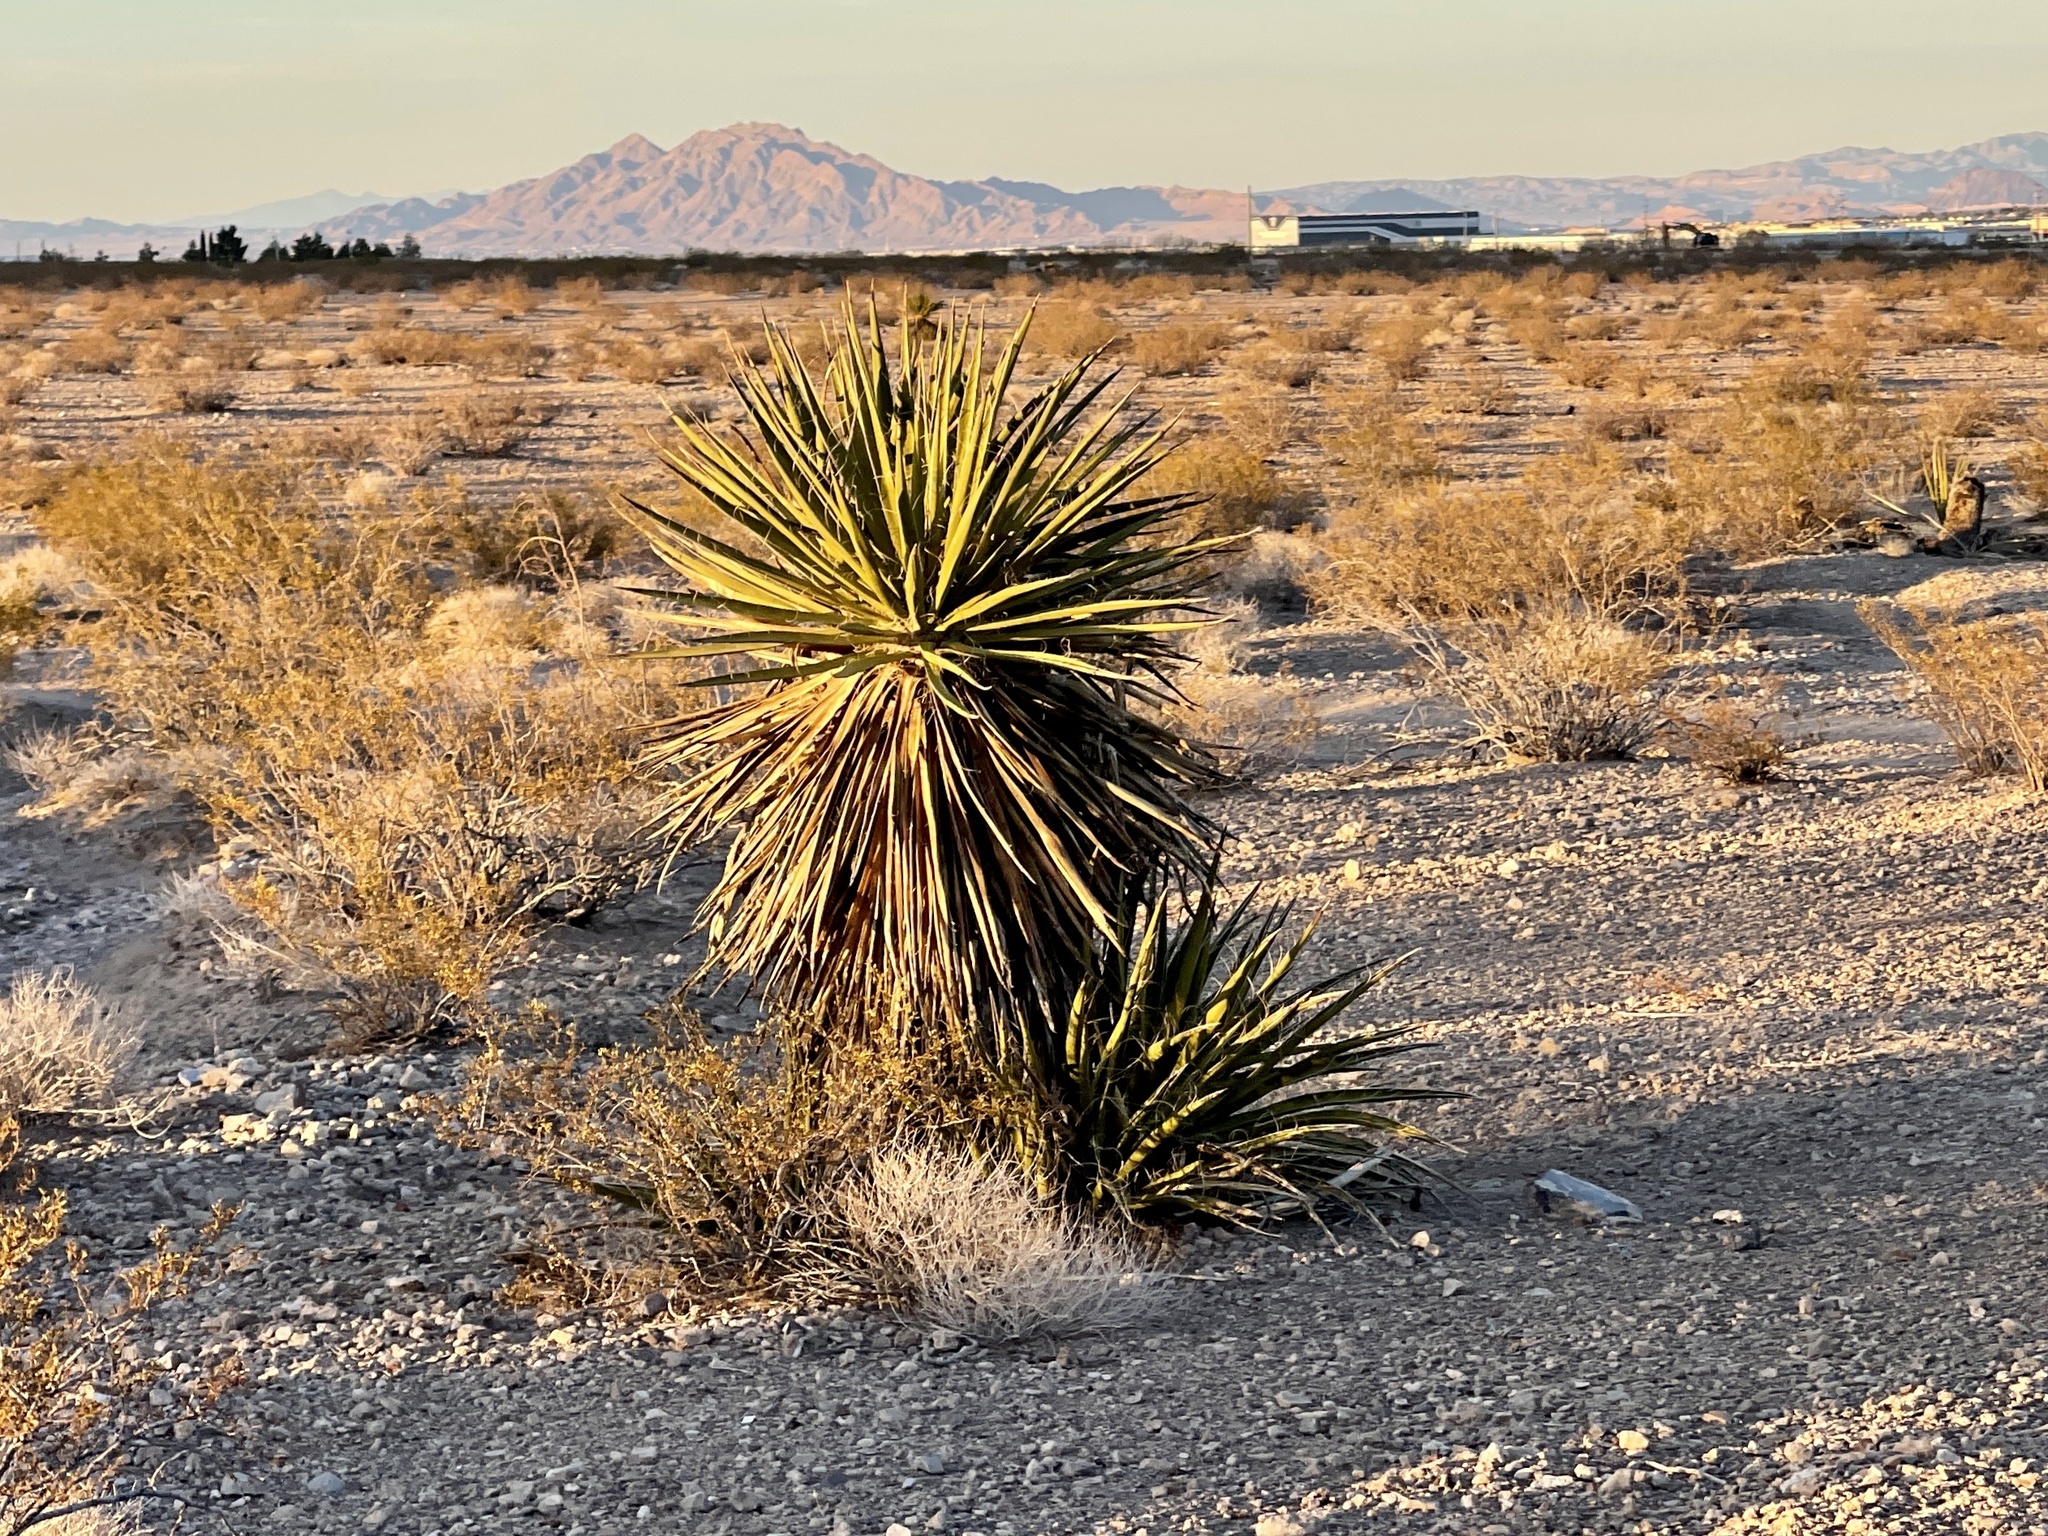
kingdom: Plantae
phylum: Tracheophyta
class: Liliopsida
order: Asparagales
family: Asparagaceae
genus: Yucca
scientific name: Yucca schidigera
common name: Mojave yucca
